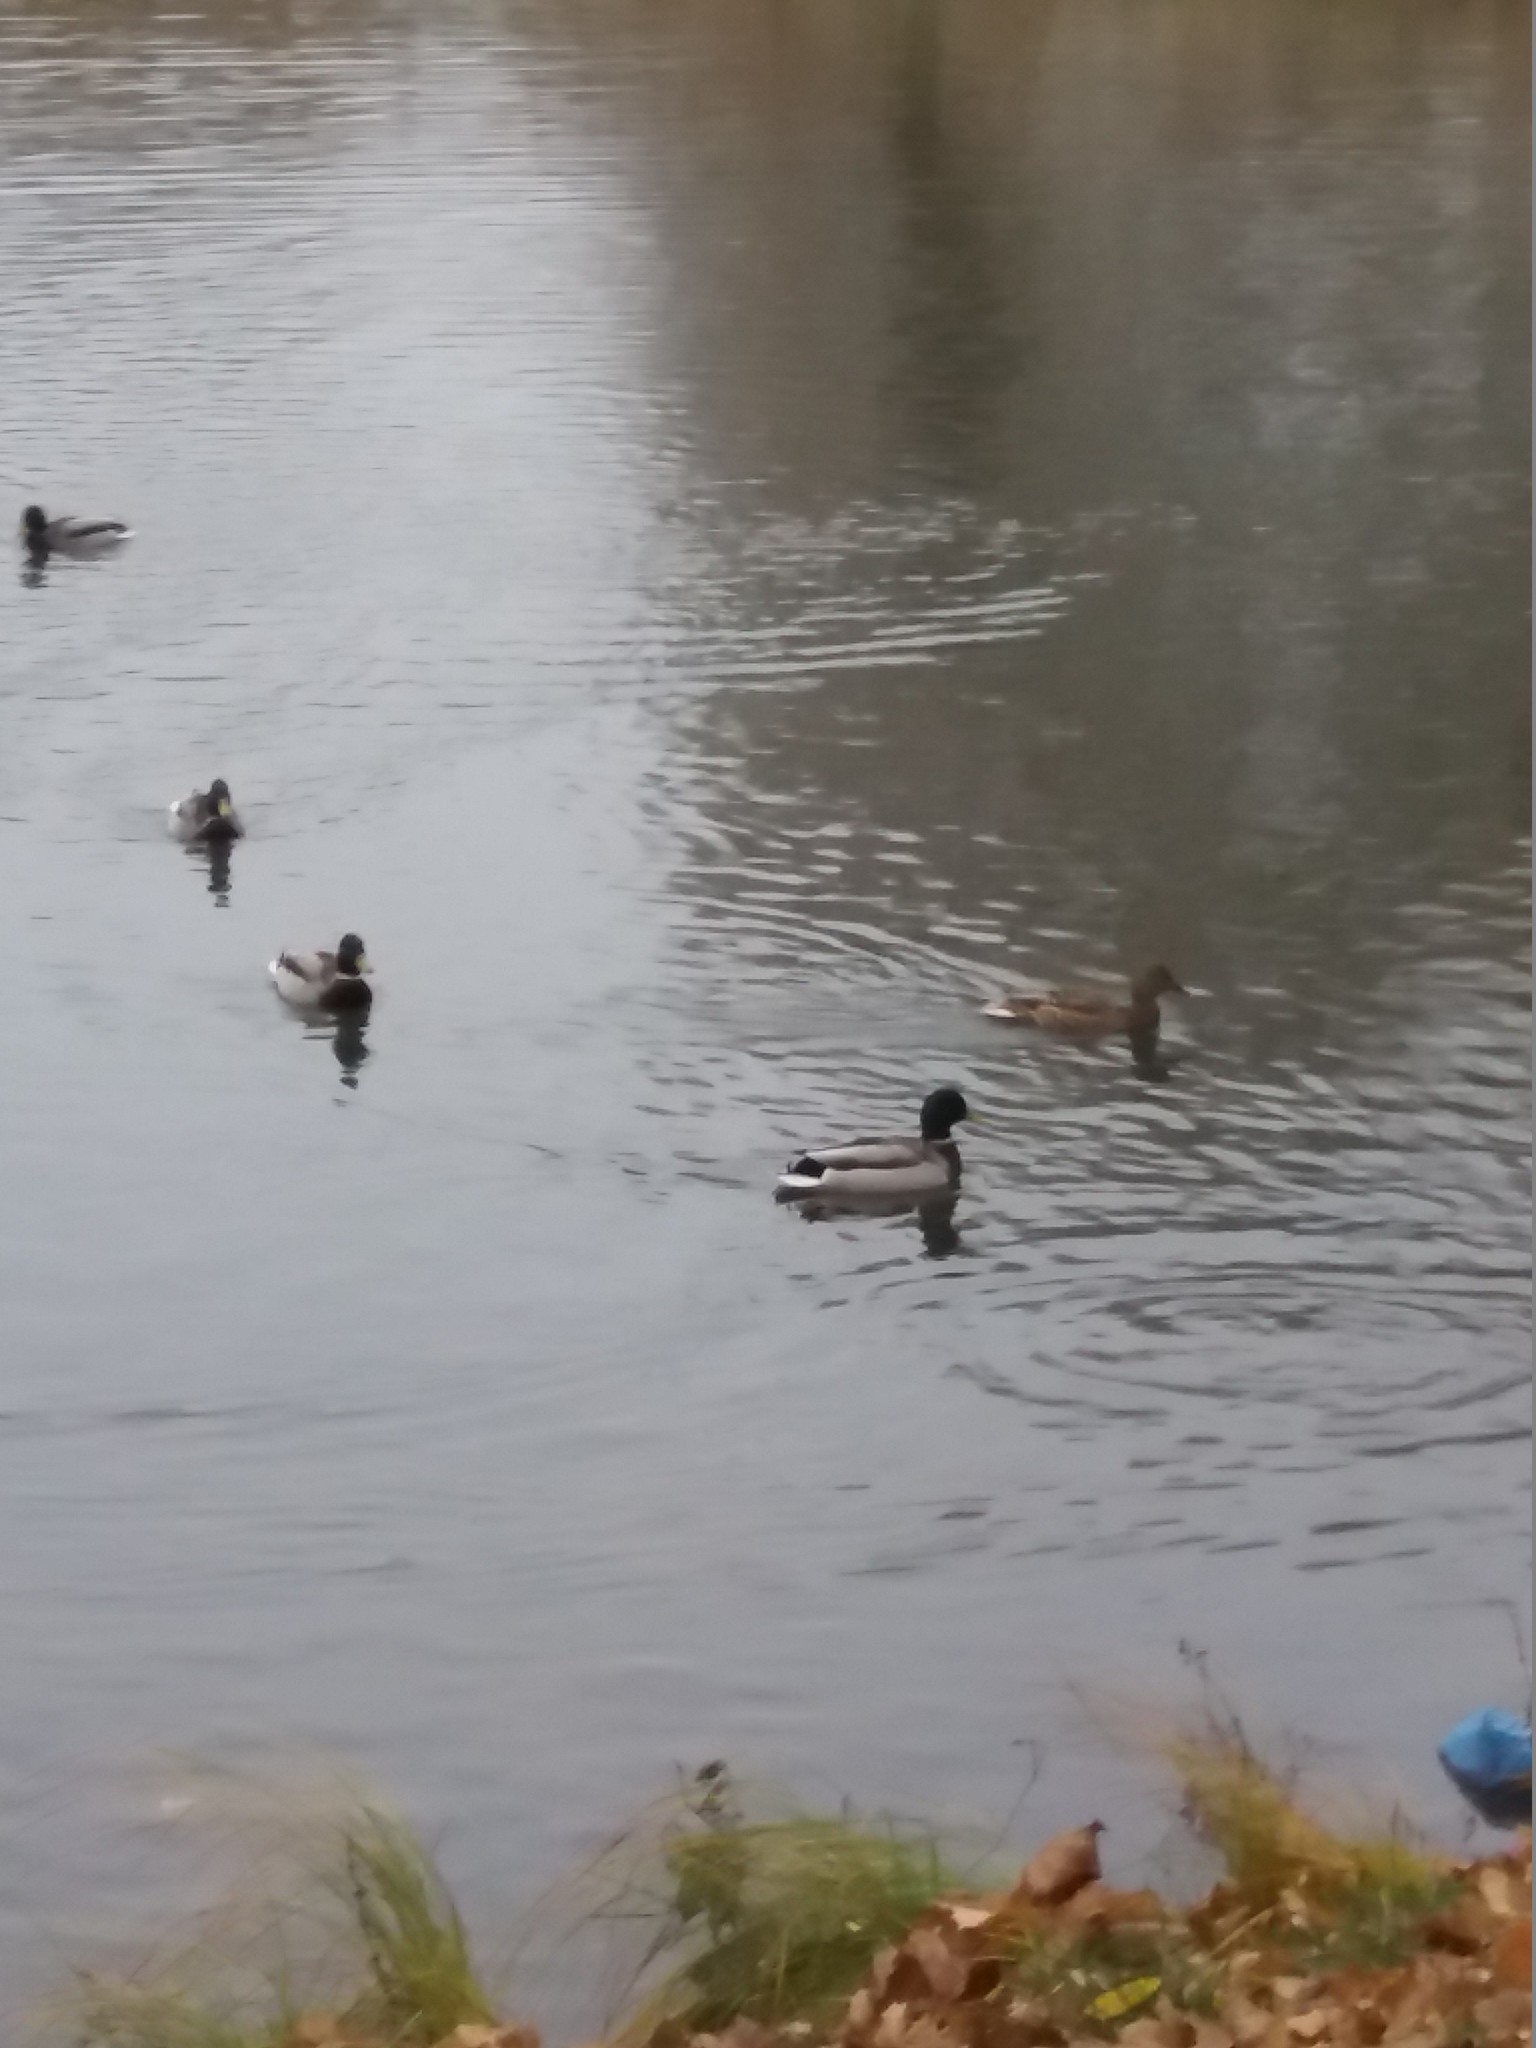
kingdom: Animalia
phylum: Chordata
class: Aves
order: Anseriformes
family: Anatidae
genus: Anas
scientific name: Anas platyrhynchos
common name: Mallard
